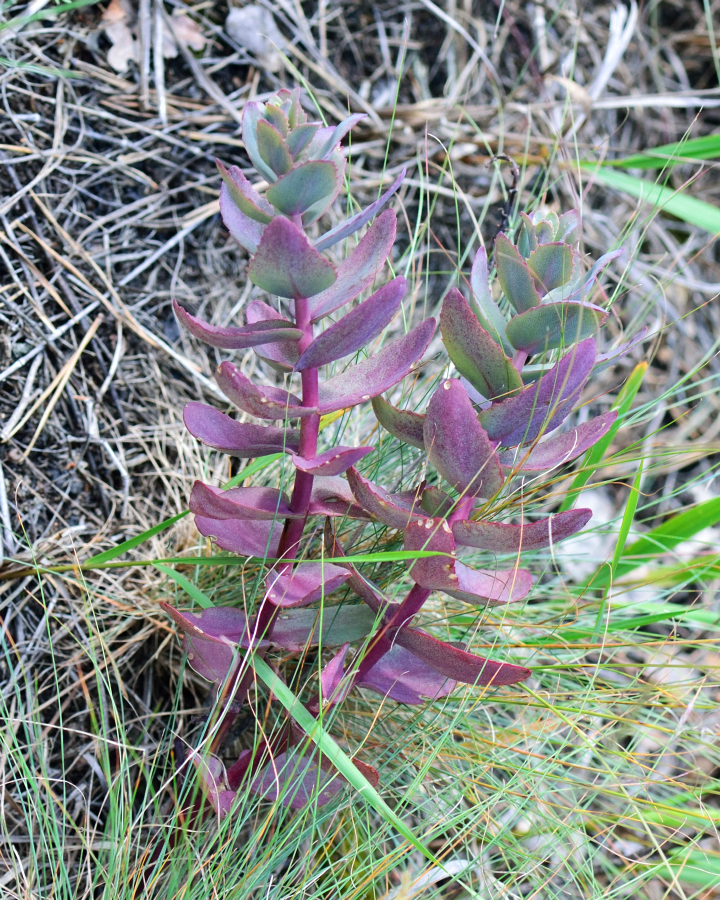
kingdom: Plantae
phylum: Tracheophyta
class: Magnoliopsida
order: Saxifragales
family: Crassulaceae
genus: Hylotelephium
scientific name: Hylotelephium maximum
